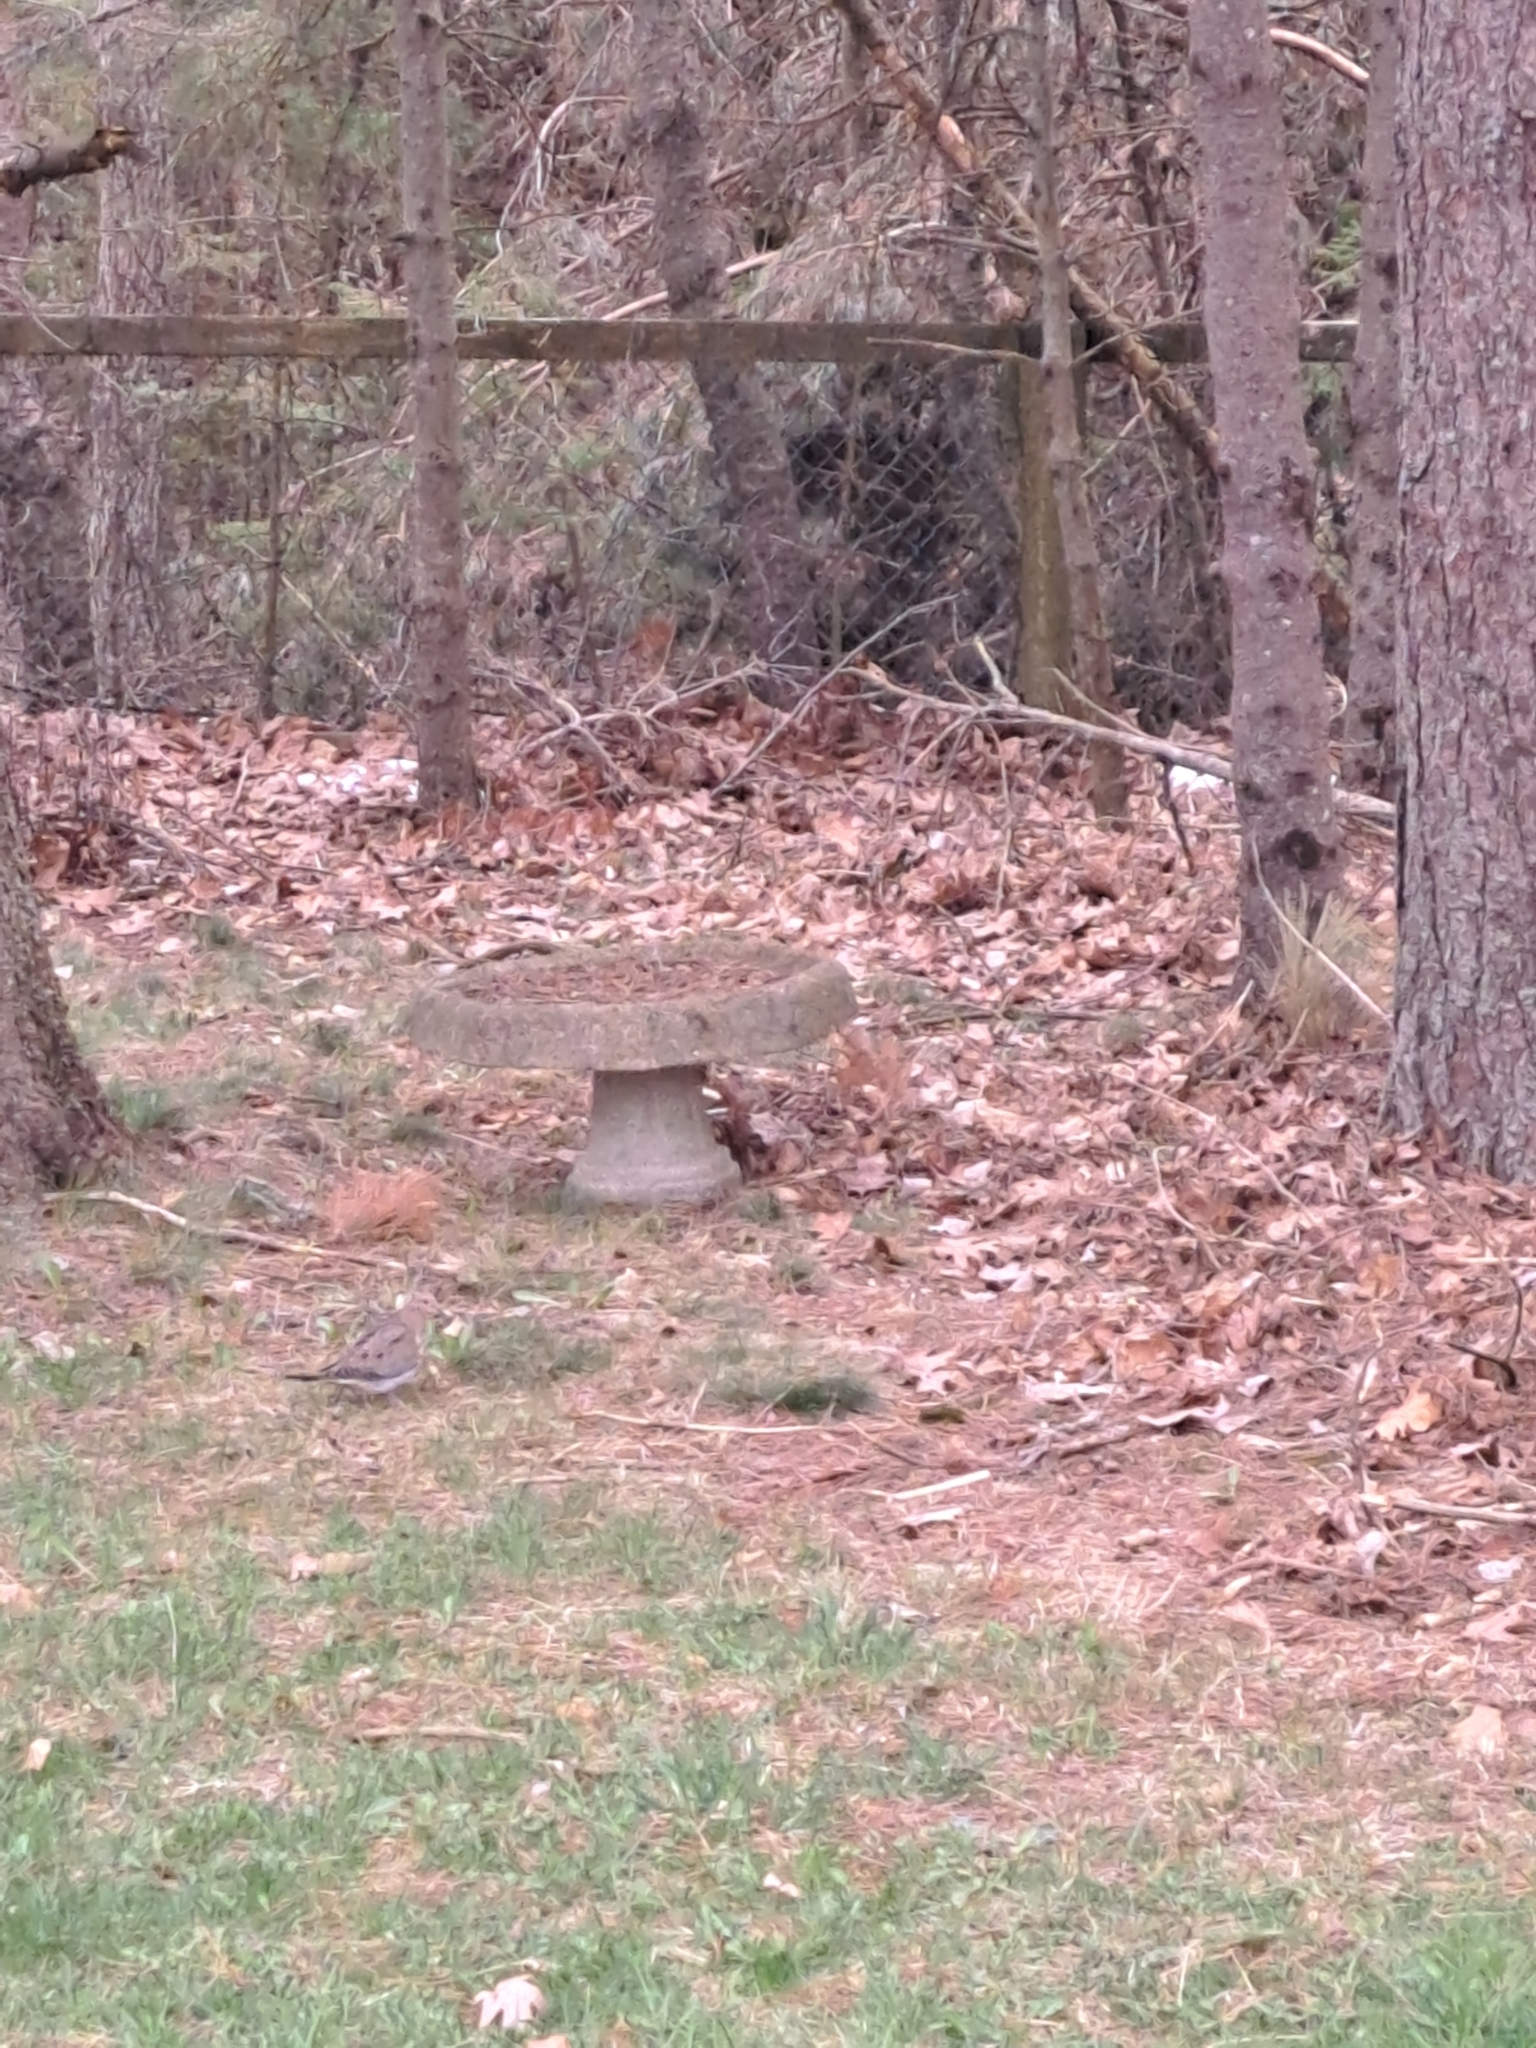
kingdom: Animalia
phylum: Chordata
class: Aves
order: Columbiformes
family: Columbidae
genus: Zenaida
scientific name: Zenaida macroura
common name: Mourning dove
